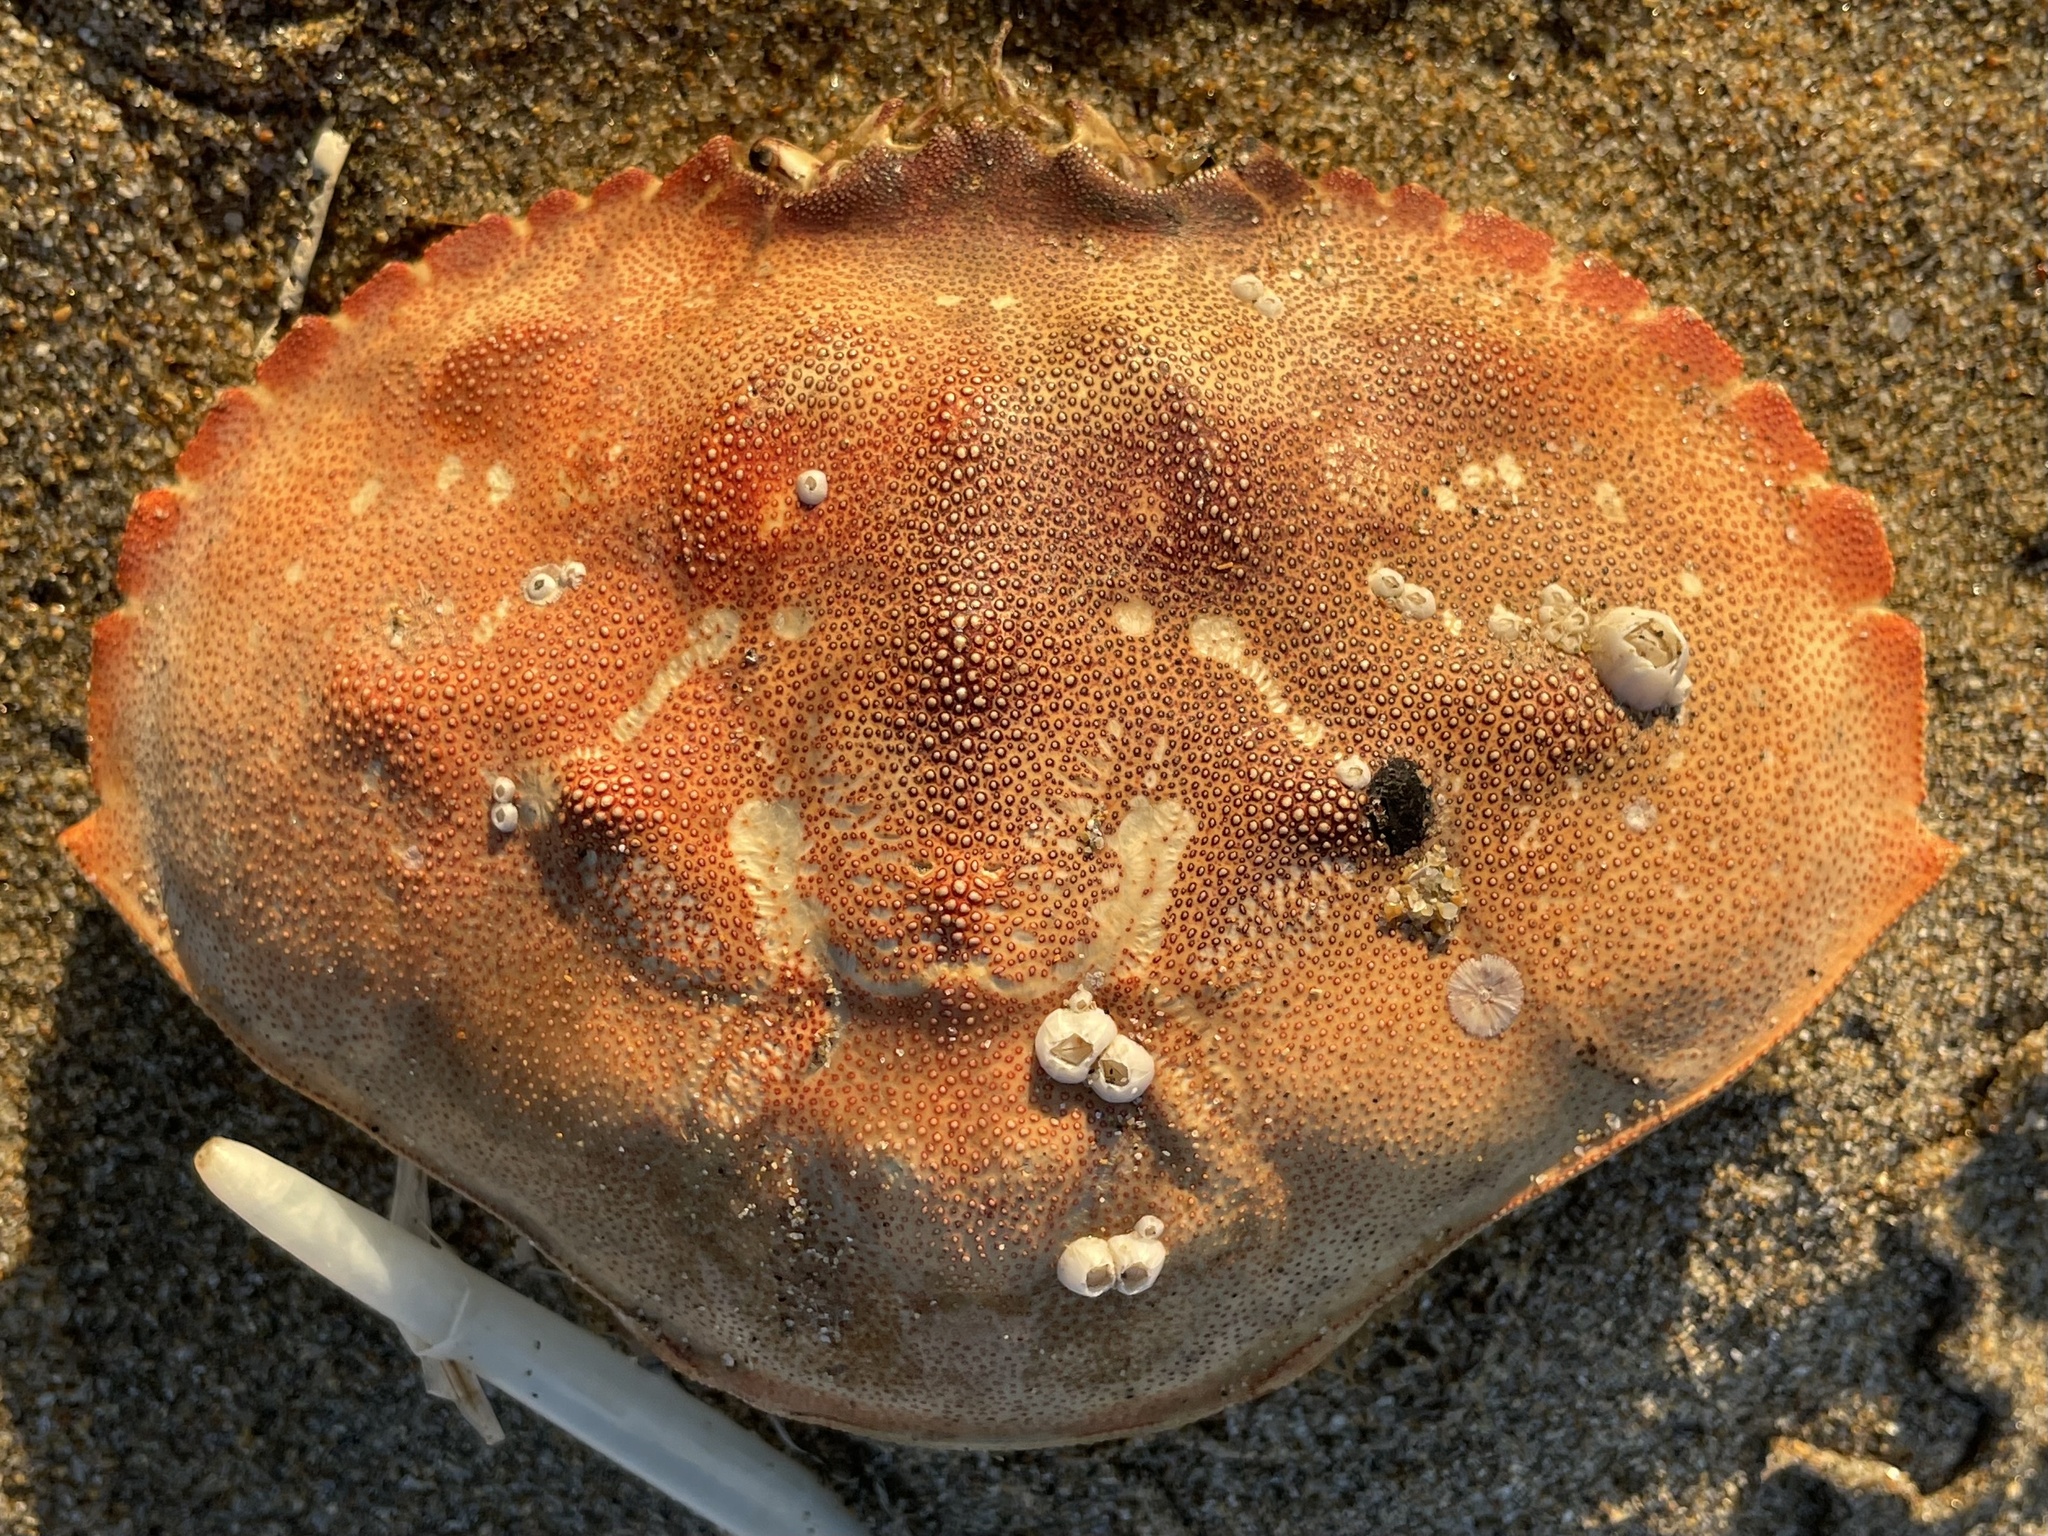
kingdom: Animalia
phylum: Arthropoda
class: Malacostraca
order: Decapoda
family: Cancridae
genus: Metacarcinus
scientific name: Metacarcinus magister
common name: Californian crab
